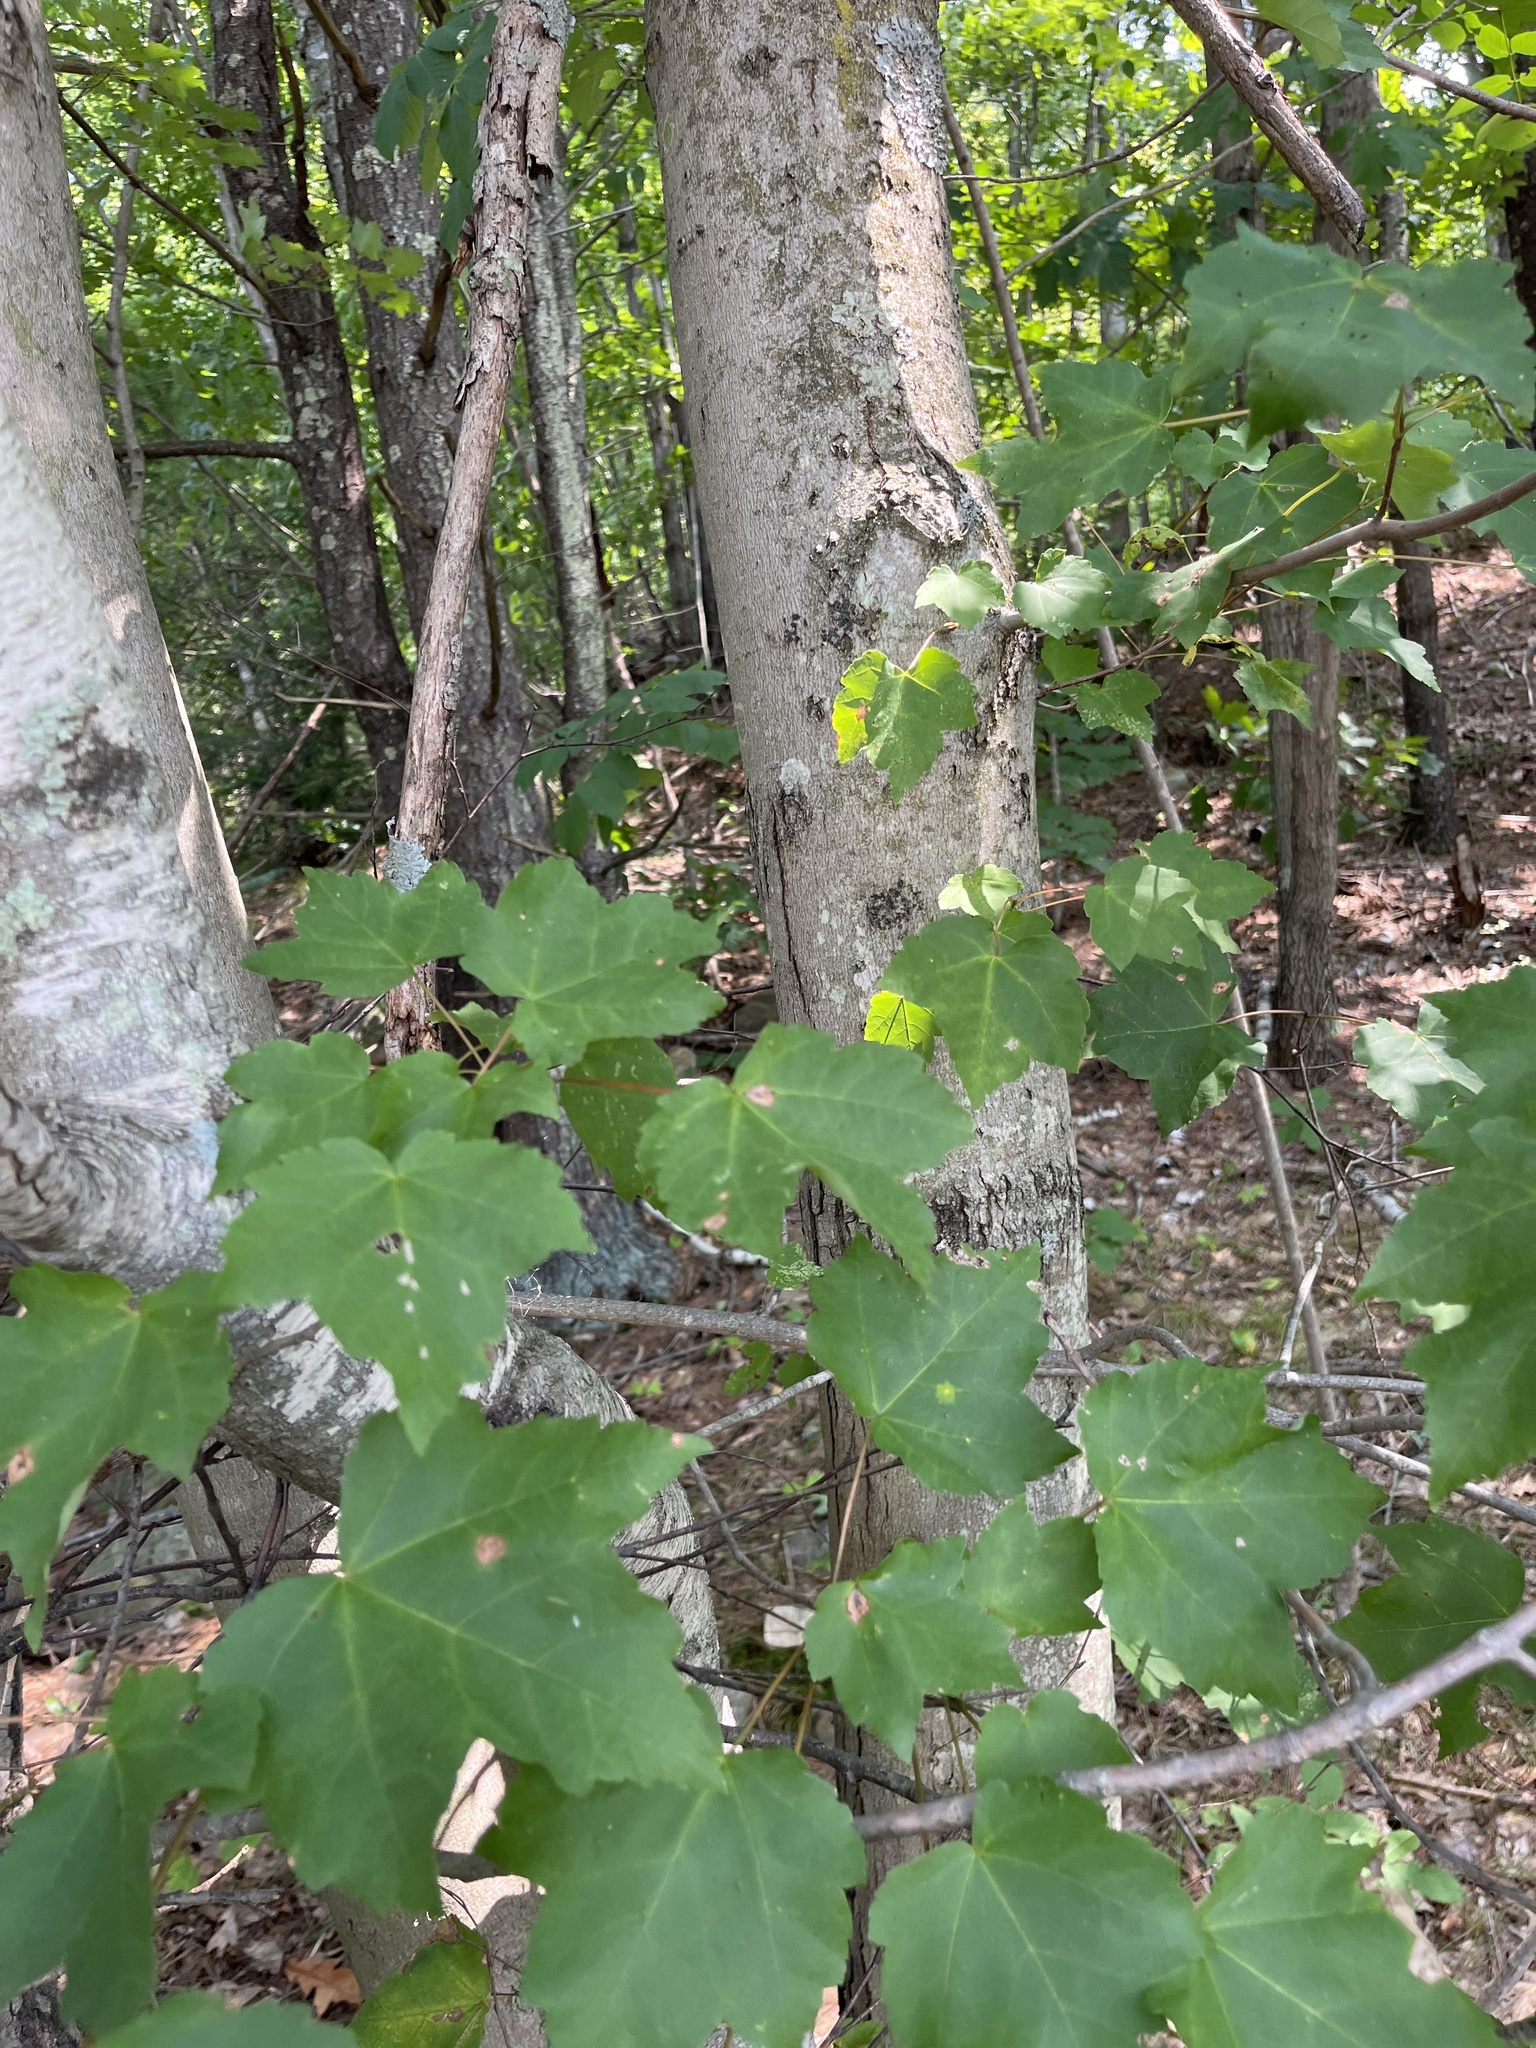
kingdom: Plantae
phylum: Tracheophyta
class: Magnoliopsida
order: Sapindales
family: Sapindaceae
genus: Acer
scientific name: Acer rubrum
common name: Red maple
